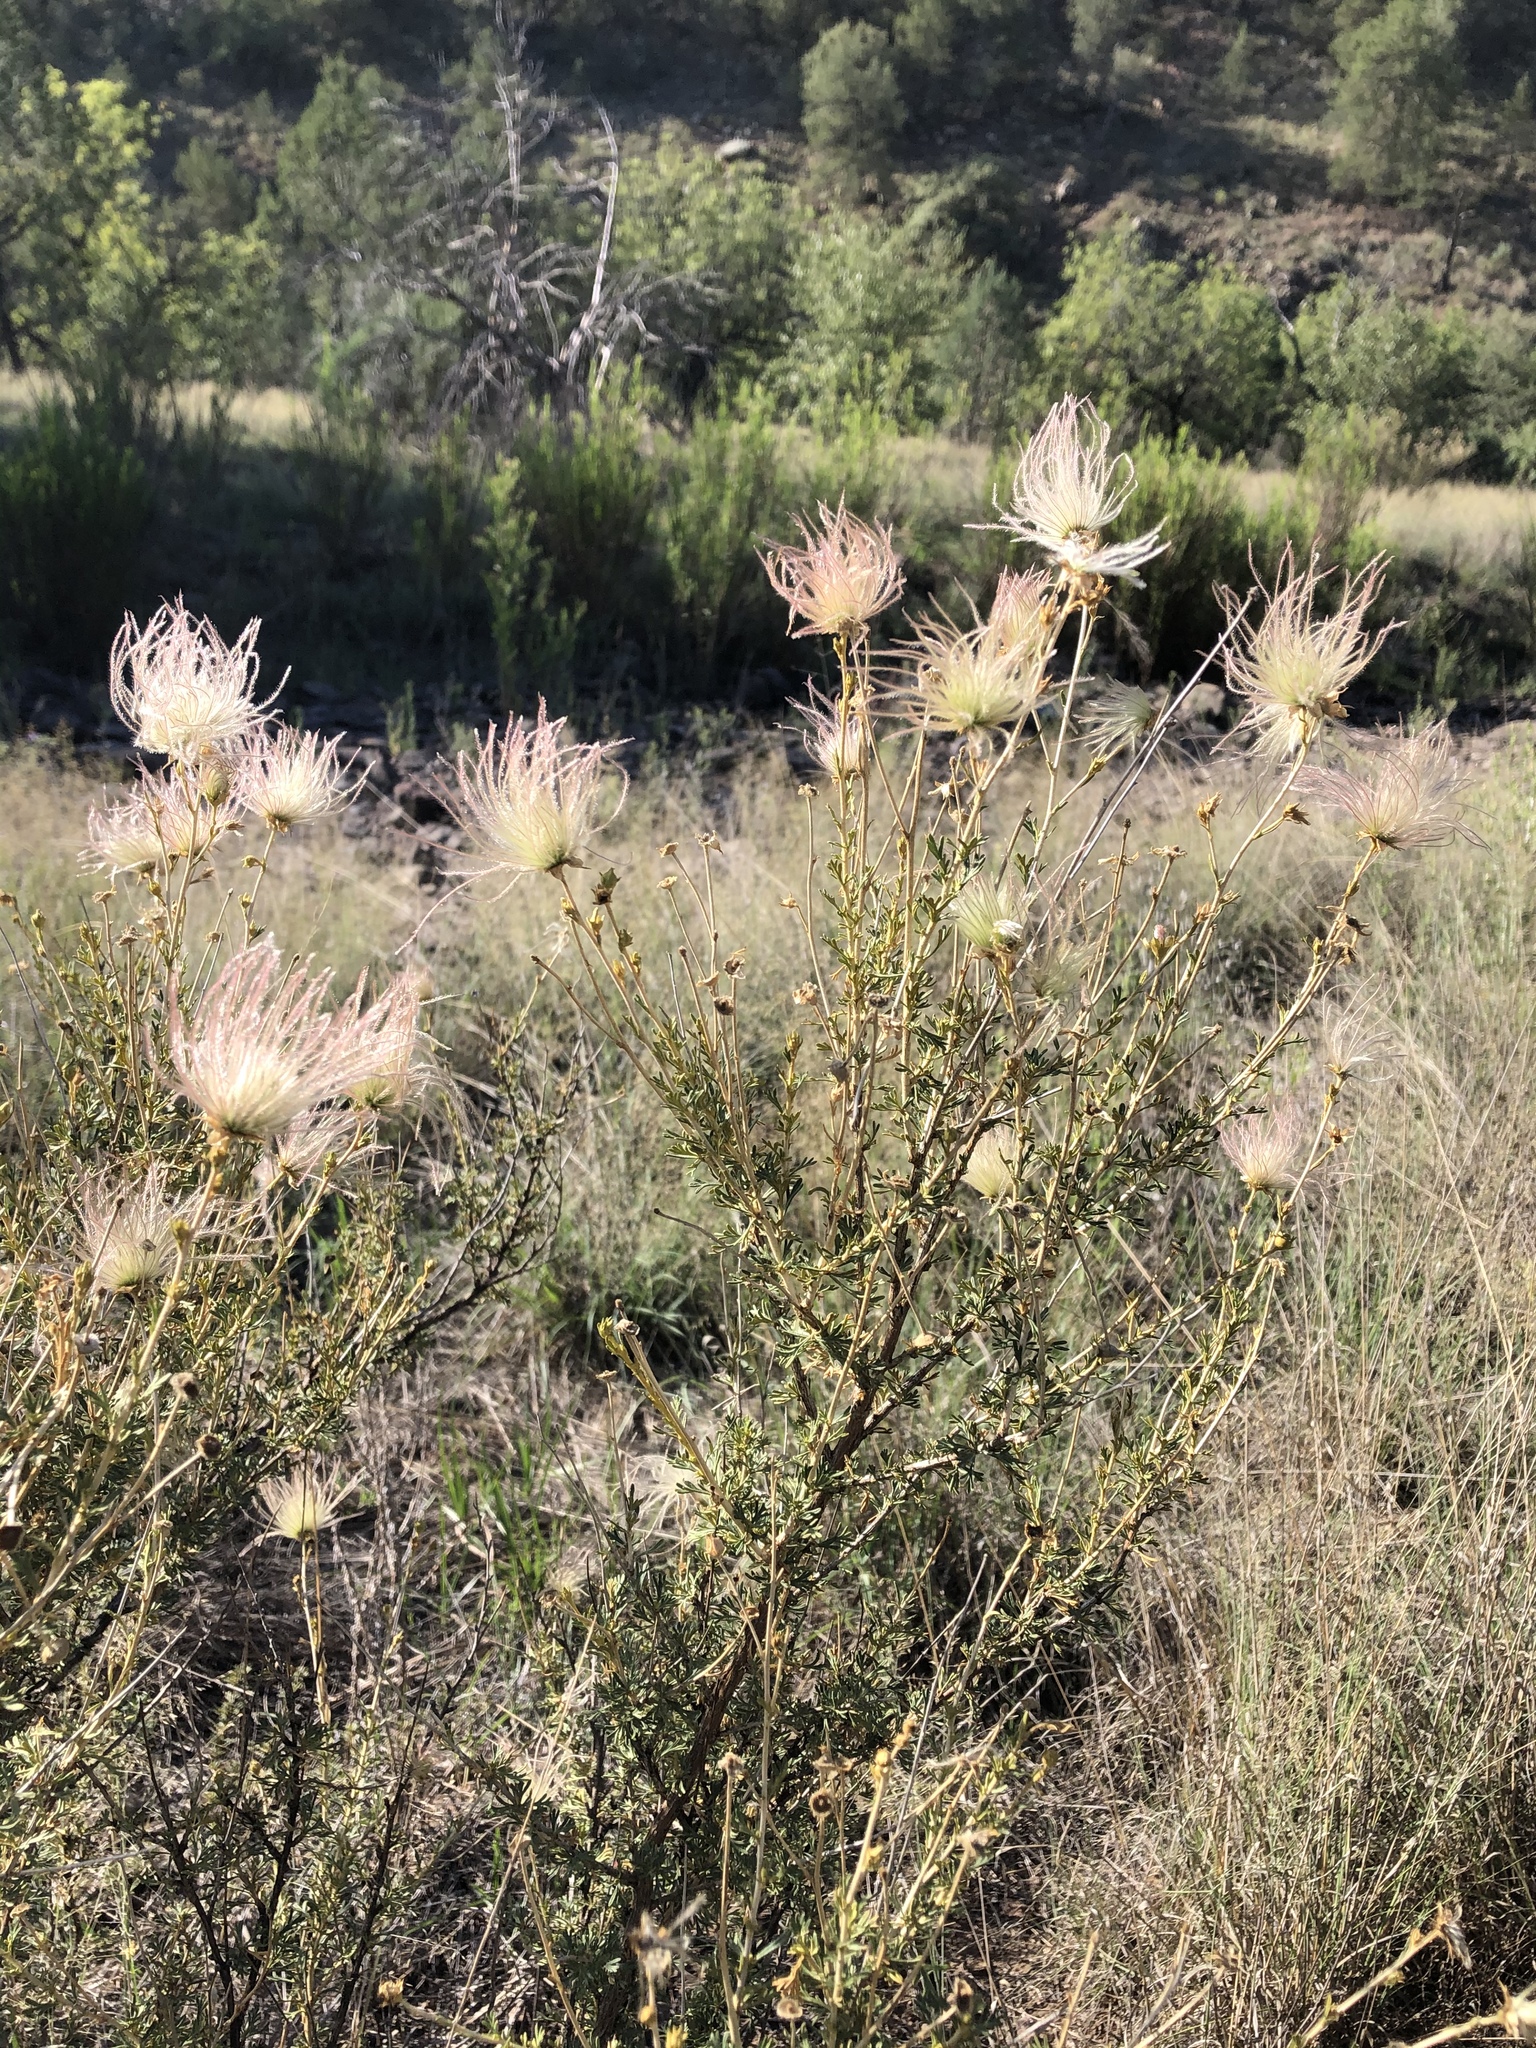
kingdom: Plantae
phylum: Tracheophyta
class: Magnoliopsida
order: Rosales
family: Rosaceae
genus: Fallugia
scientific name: Fallugia paradoxa
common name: Apache-plume
